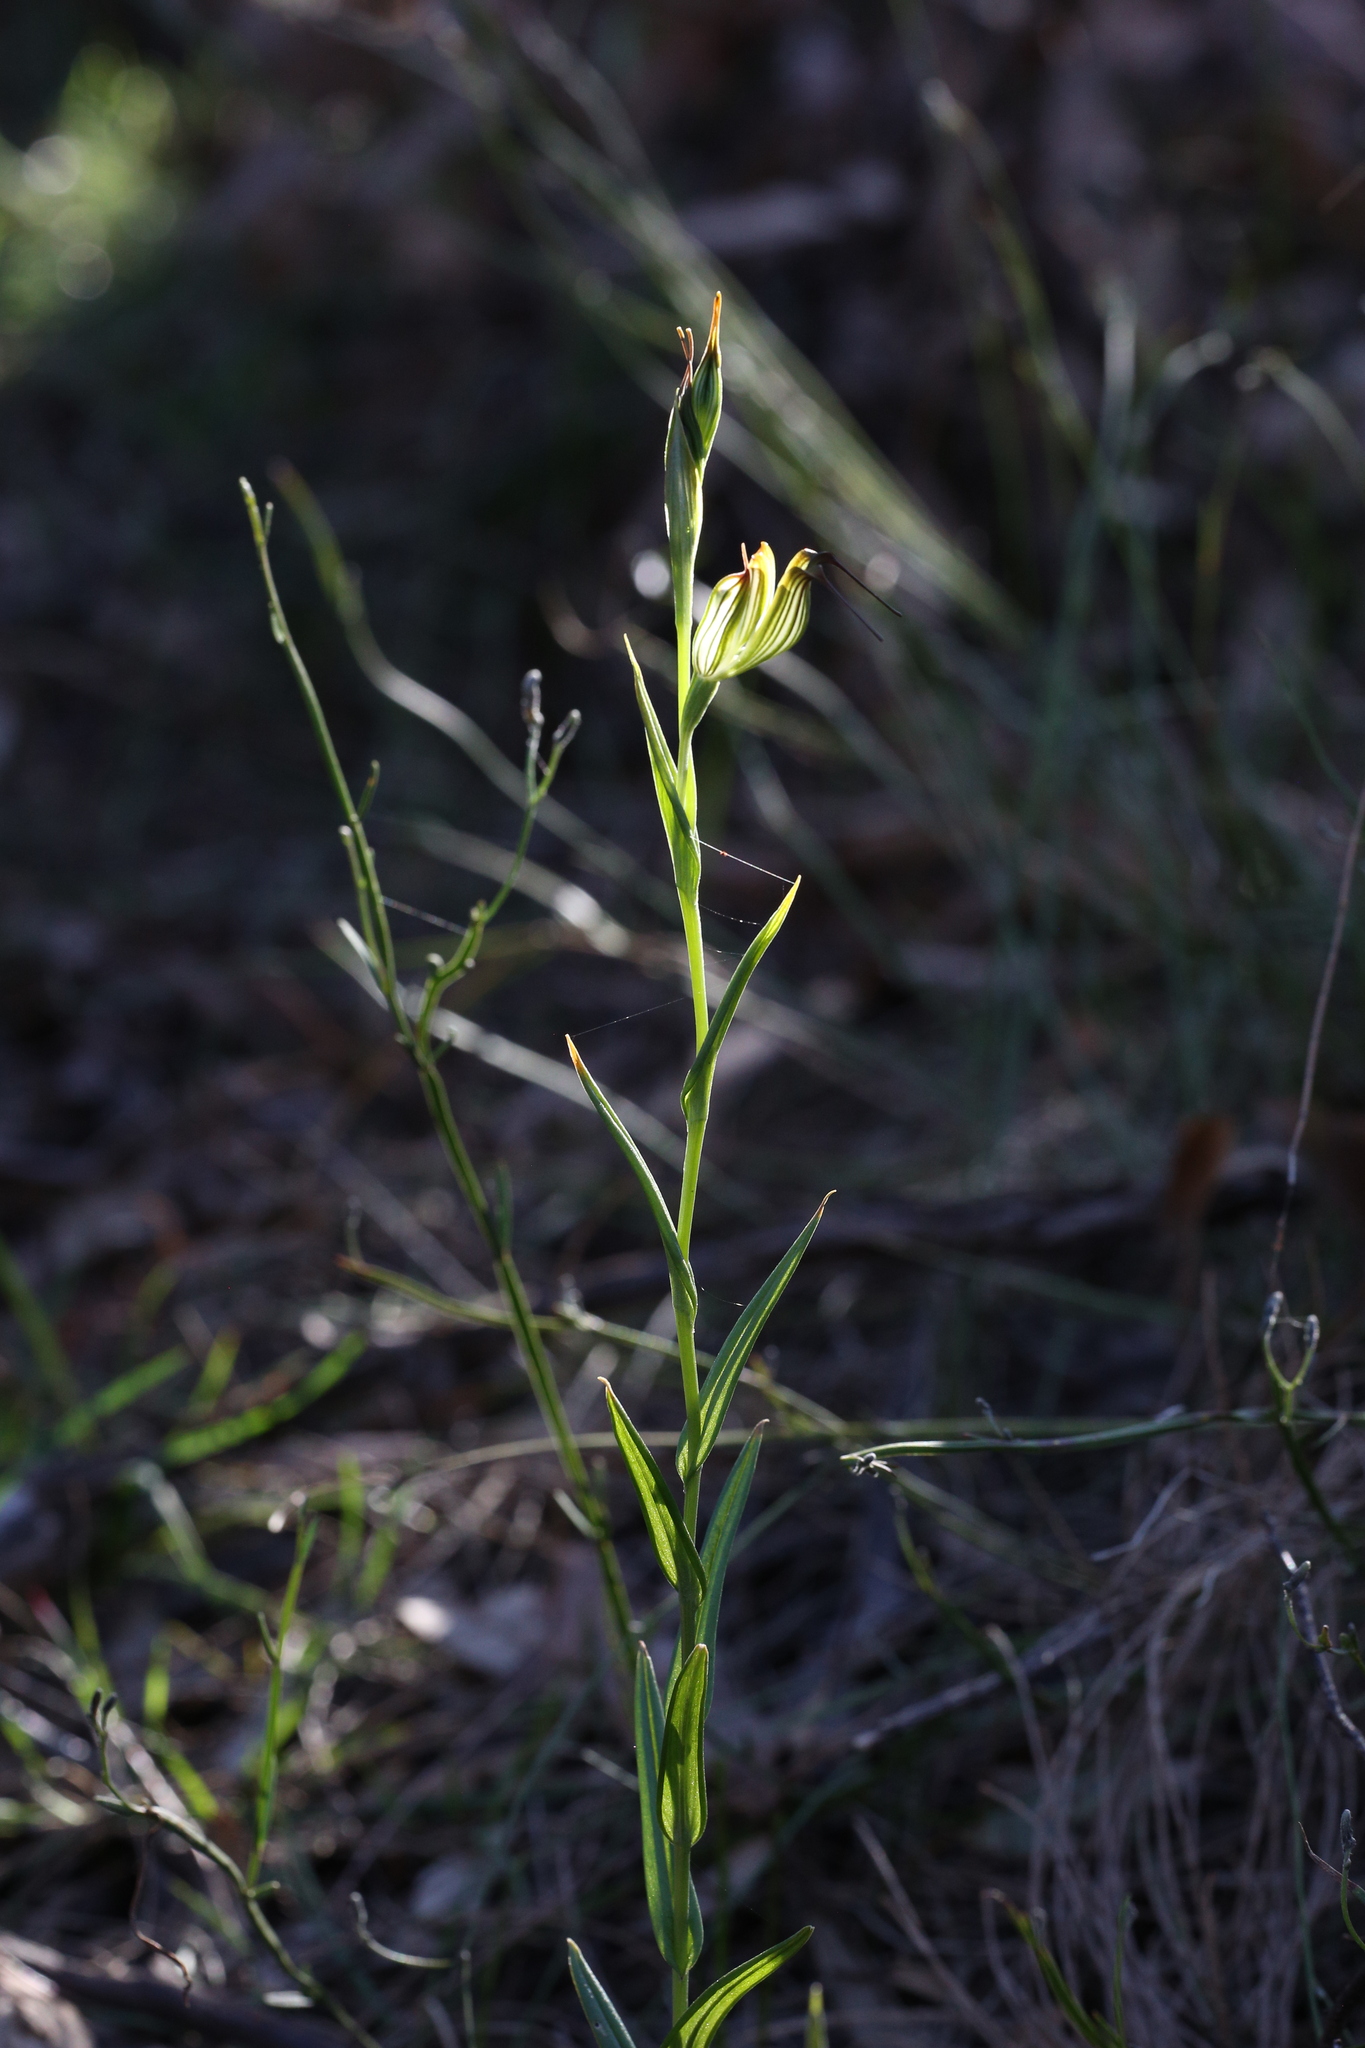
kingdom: Plantae
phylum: Tracheophyta
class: Liliopsida
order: Asparagales
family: Orchidaceae
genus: Pterostylis
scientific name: Pterostylis recurva
